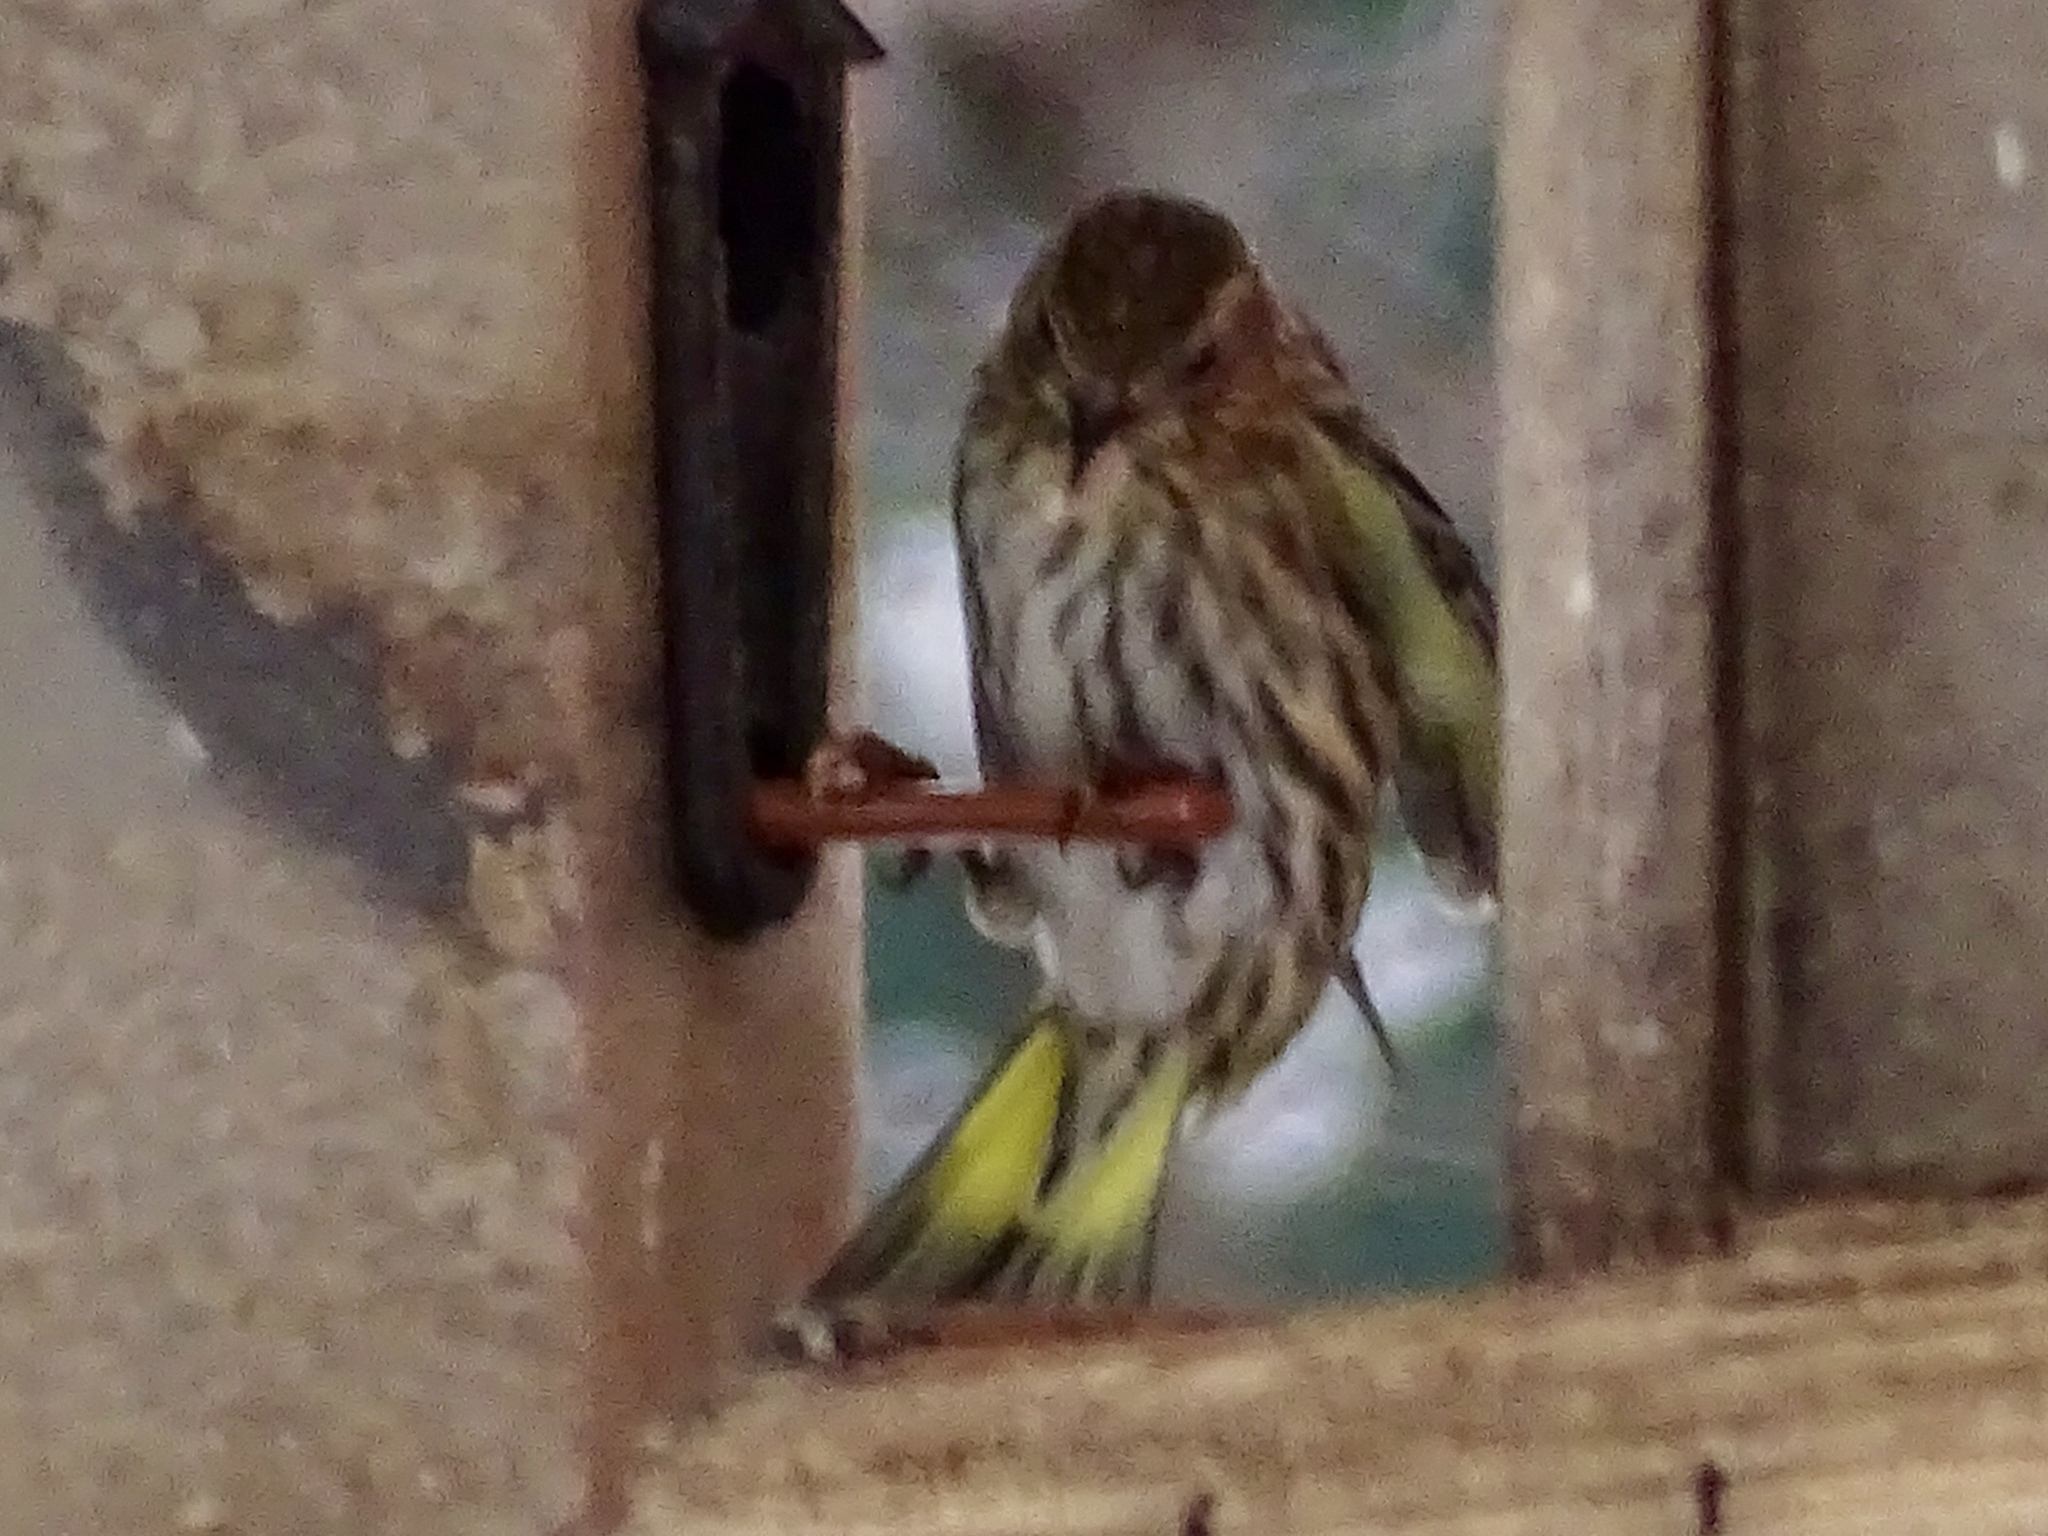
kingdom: Animalia
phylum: Chordata
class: Aves
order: Passeriformes
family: Fringillidae
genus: Spinus
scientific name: Spinus pinus
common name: Pine siskin
